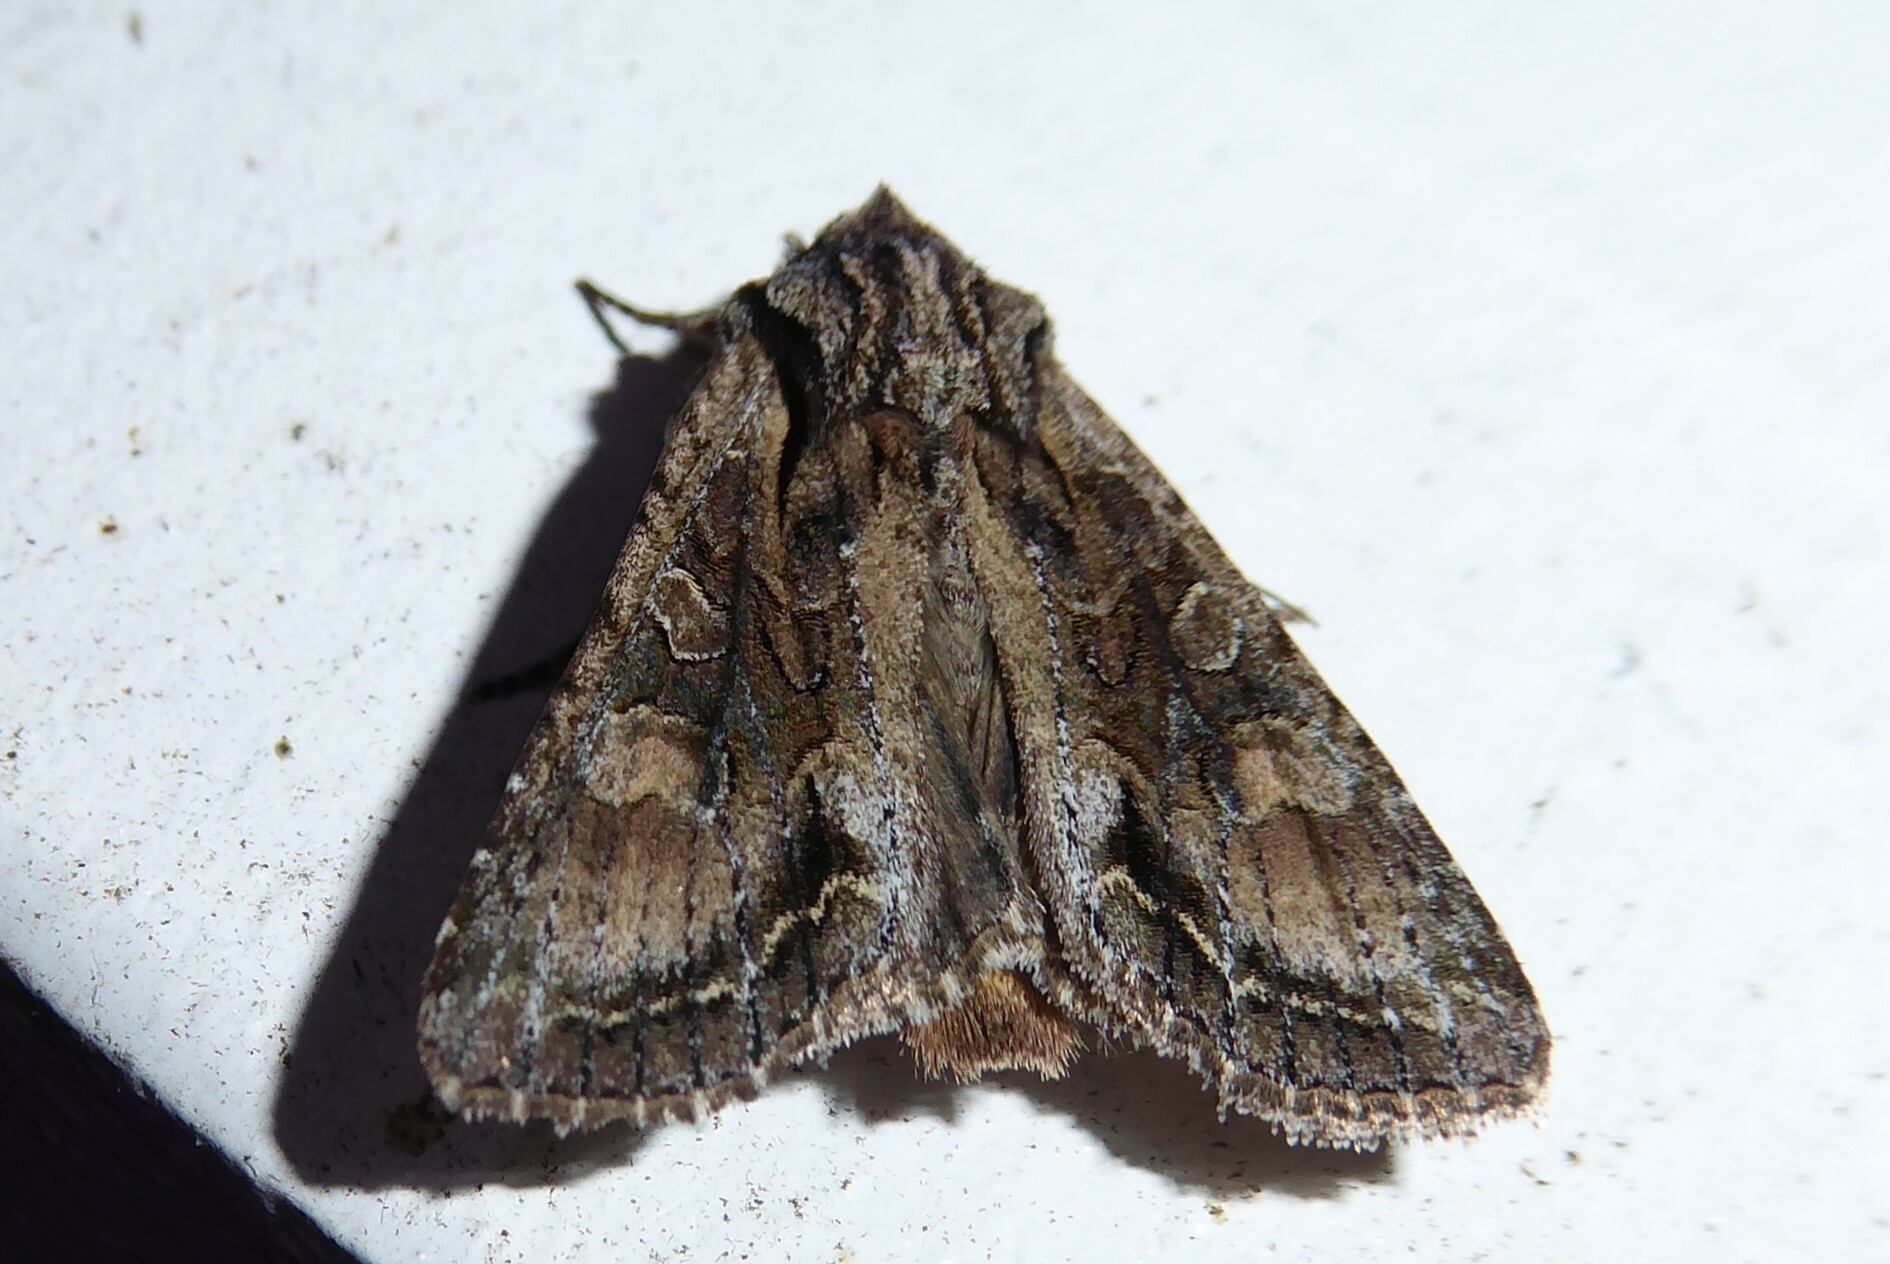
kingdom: Animalia
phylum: Arthropoda
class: Insecta
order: Lepidoptera
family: Noctuidae
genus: Ichneutica
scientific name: Ichneutica mutans
